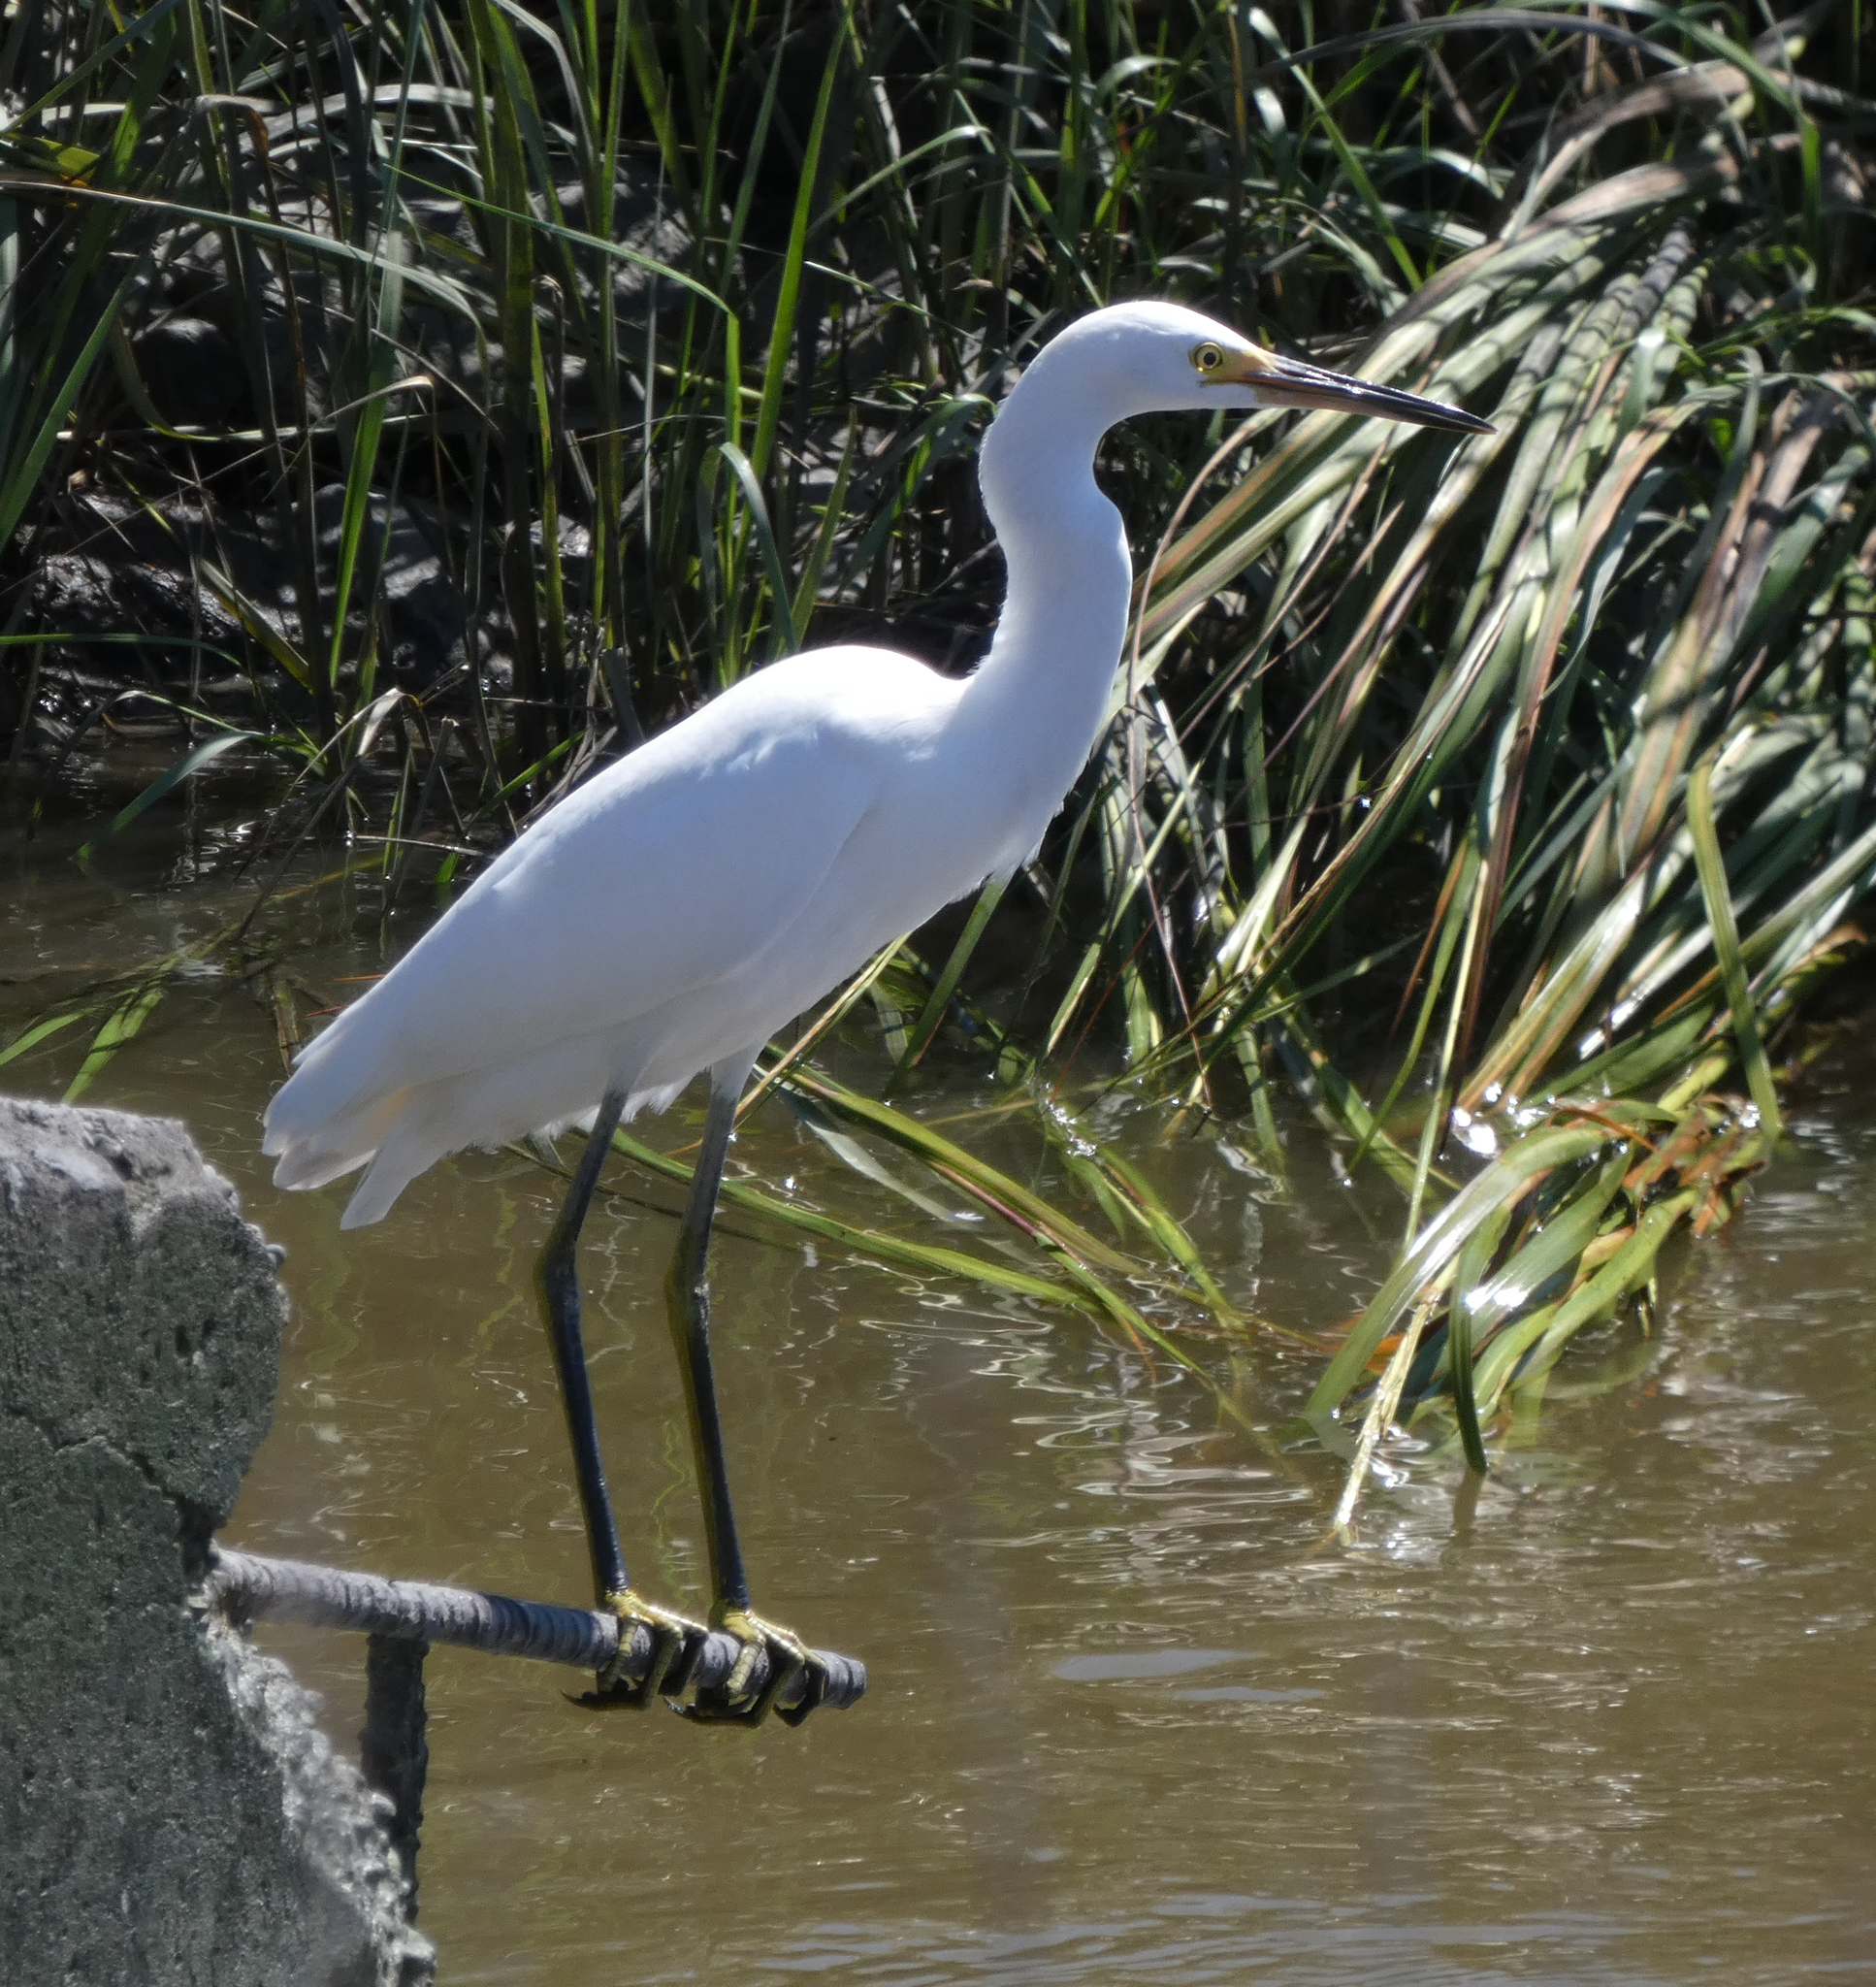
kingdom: Animalia
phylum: Chordata
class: Aves
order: Pelecaniformes
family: Ardeidae
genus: Egretta
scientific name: Egretta thula
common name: Snowy egret
